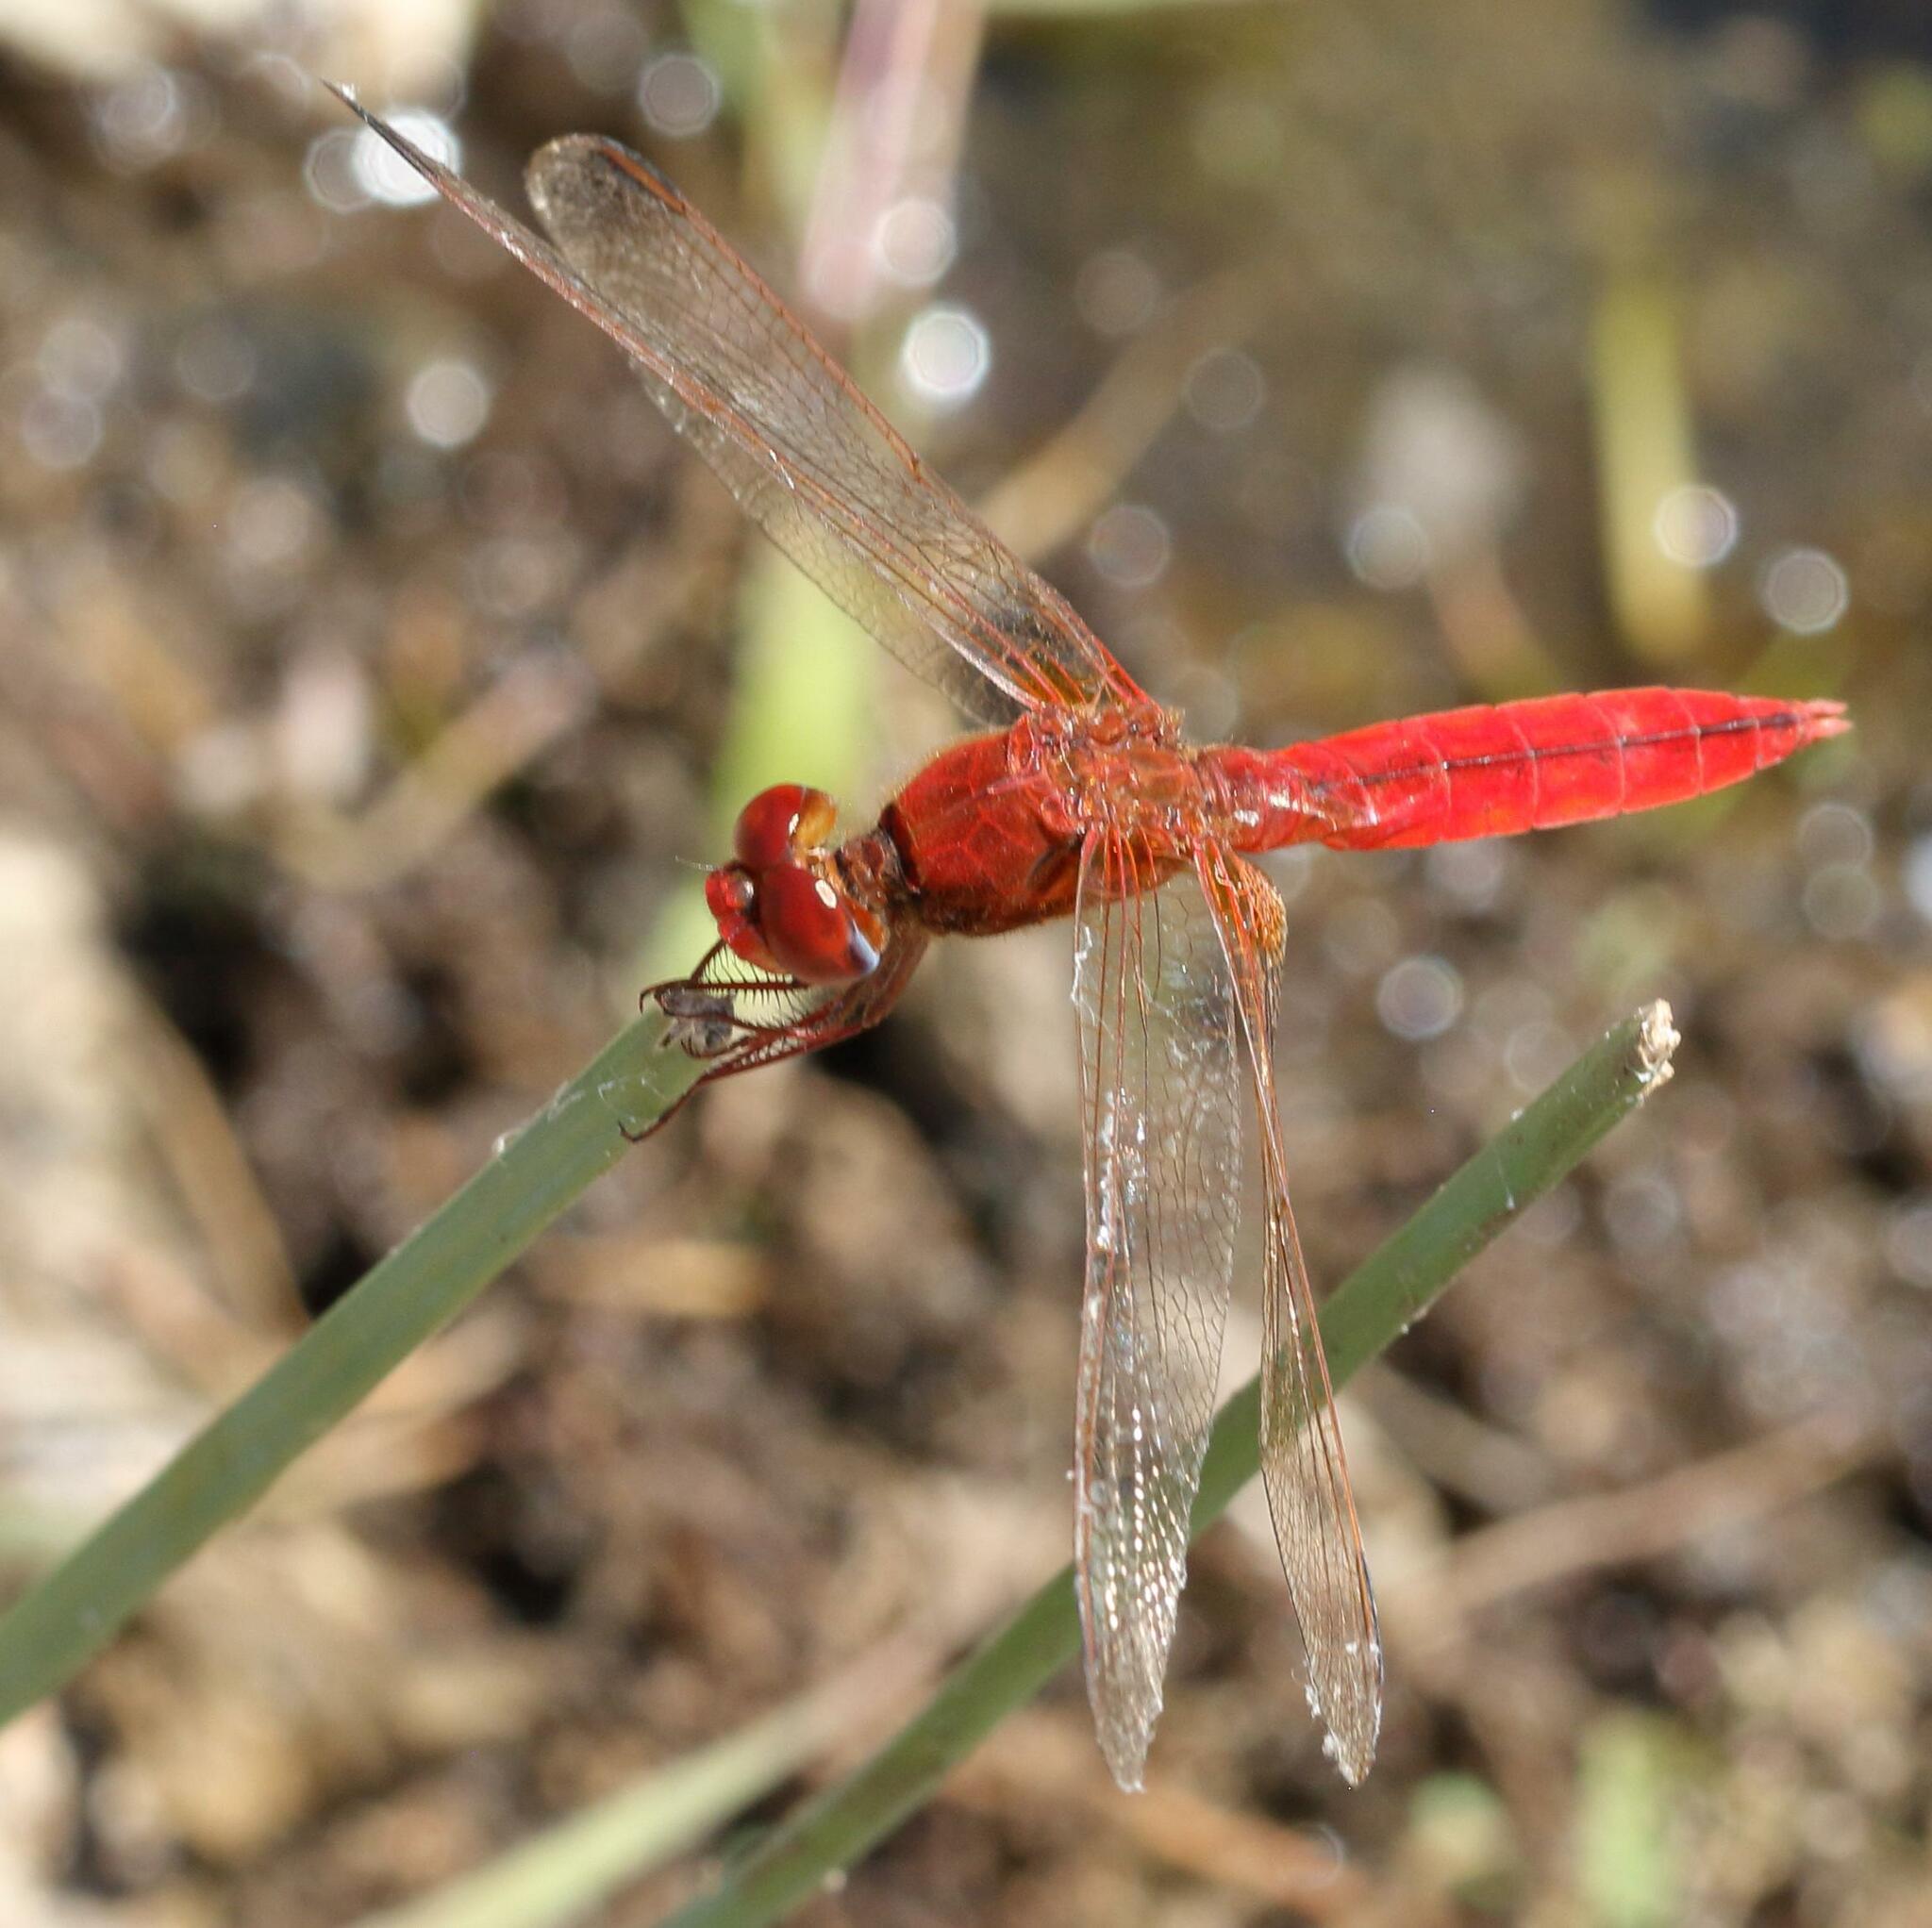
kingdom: Animalia
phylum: Arthropoda
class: Insecta
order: Odonata
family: Libellulidae
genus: Crocothemis
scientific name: Crocothemis erythraea
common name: Scarlet dragonfly
